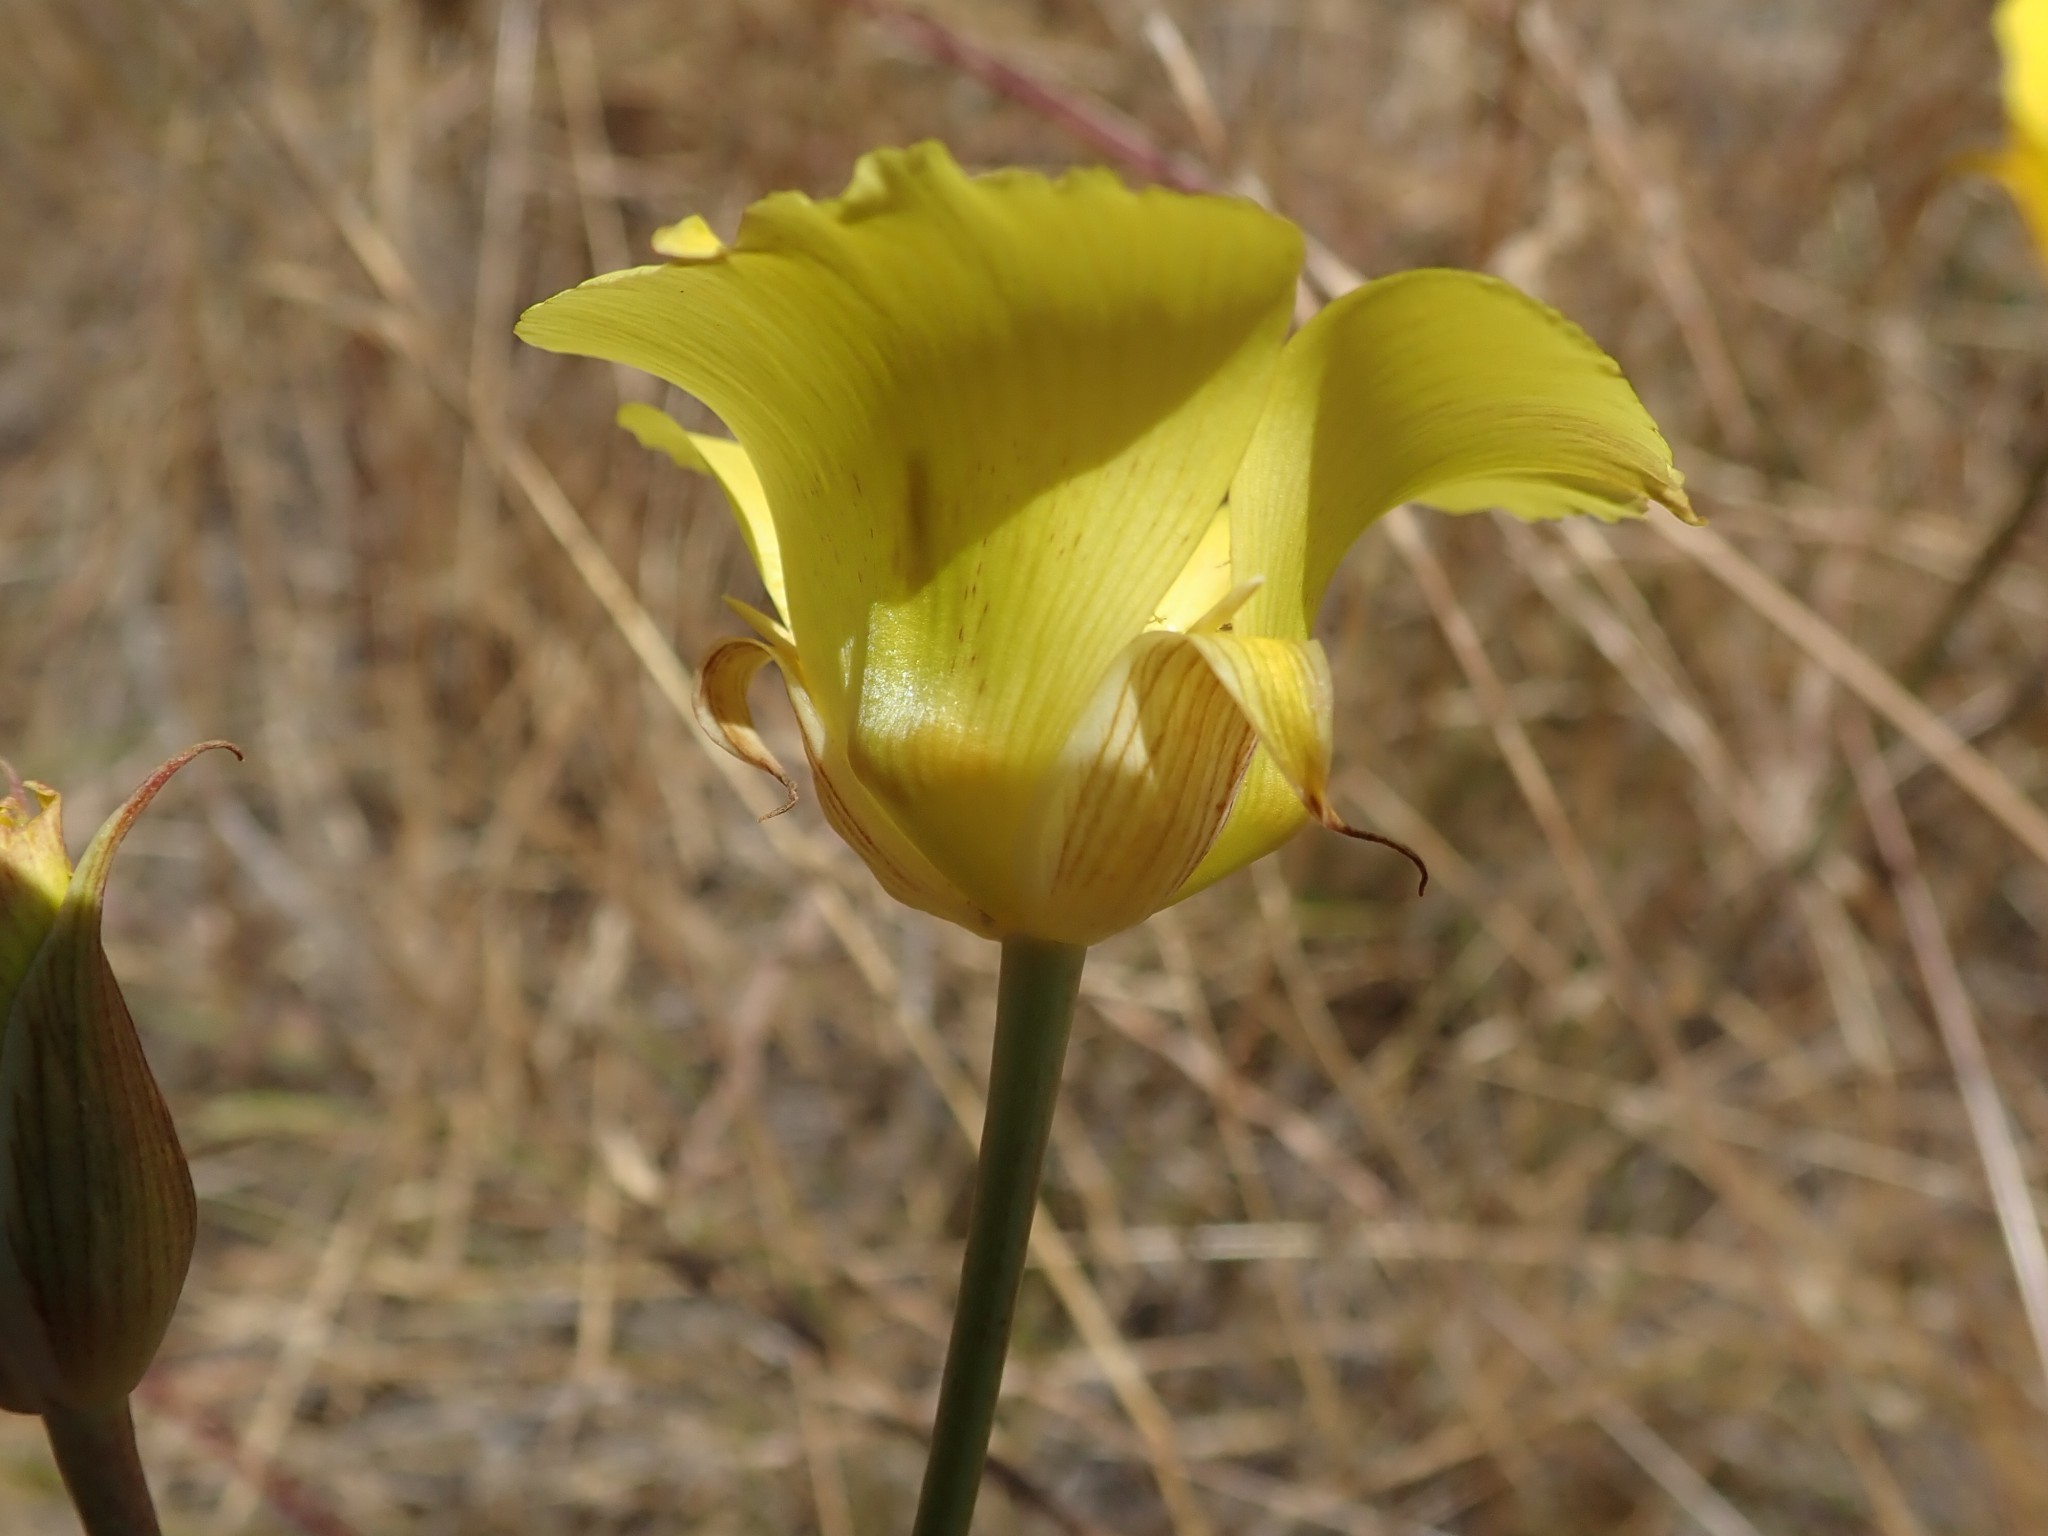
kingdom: Plantae
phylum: Tracheophyta
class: Liliopsida
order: Liliales
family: Liliaceae
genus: Calochortus
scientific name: Calochortus luteus
